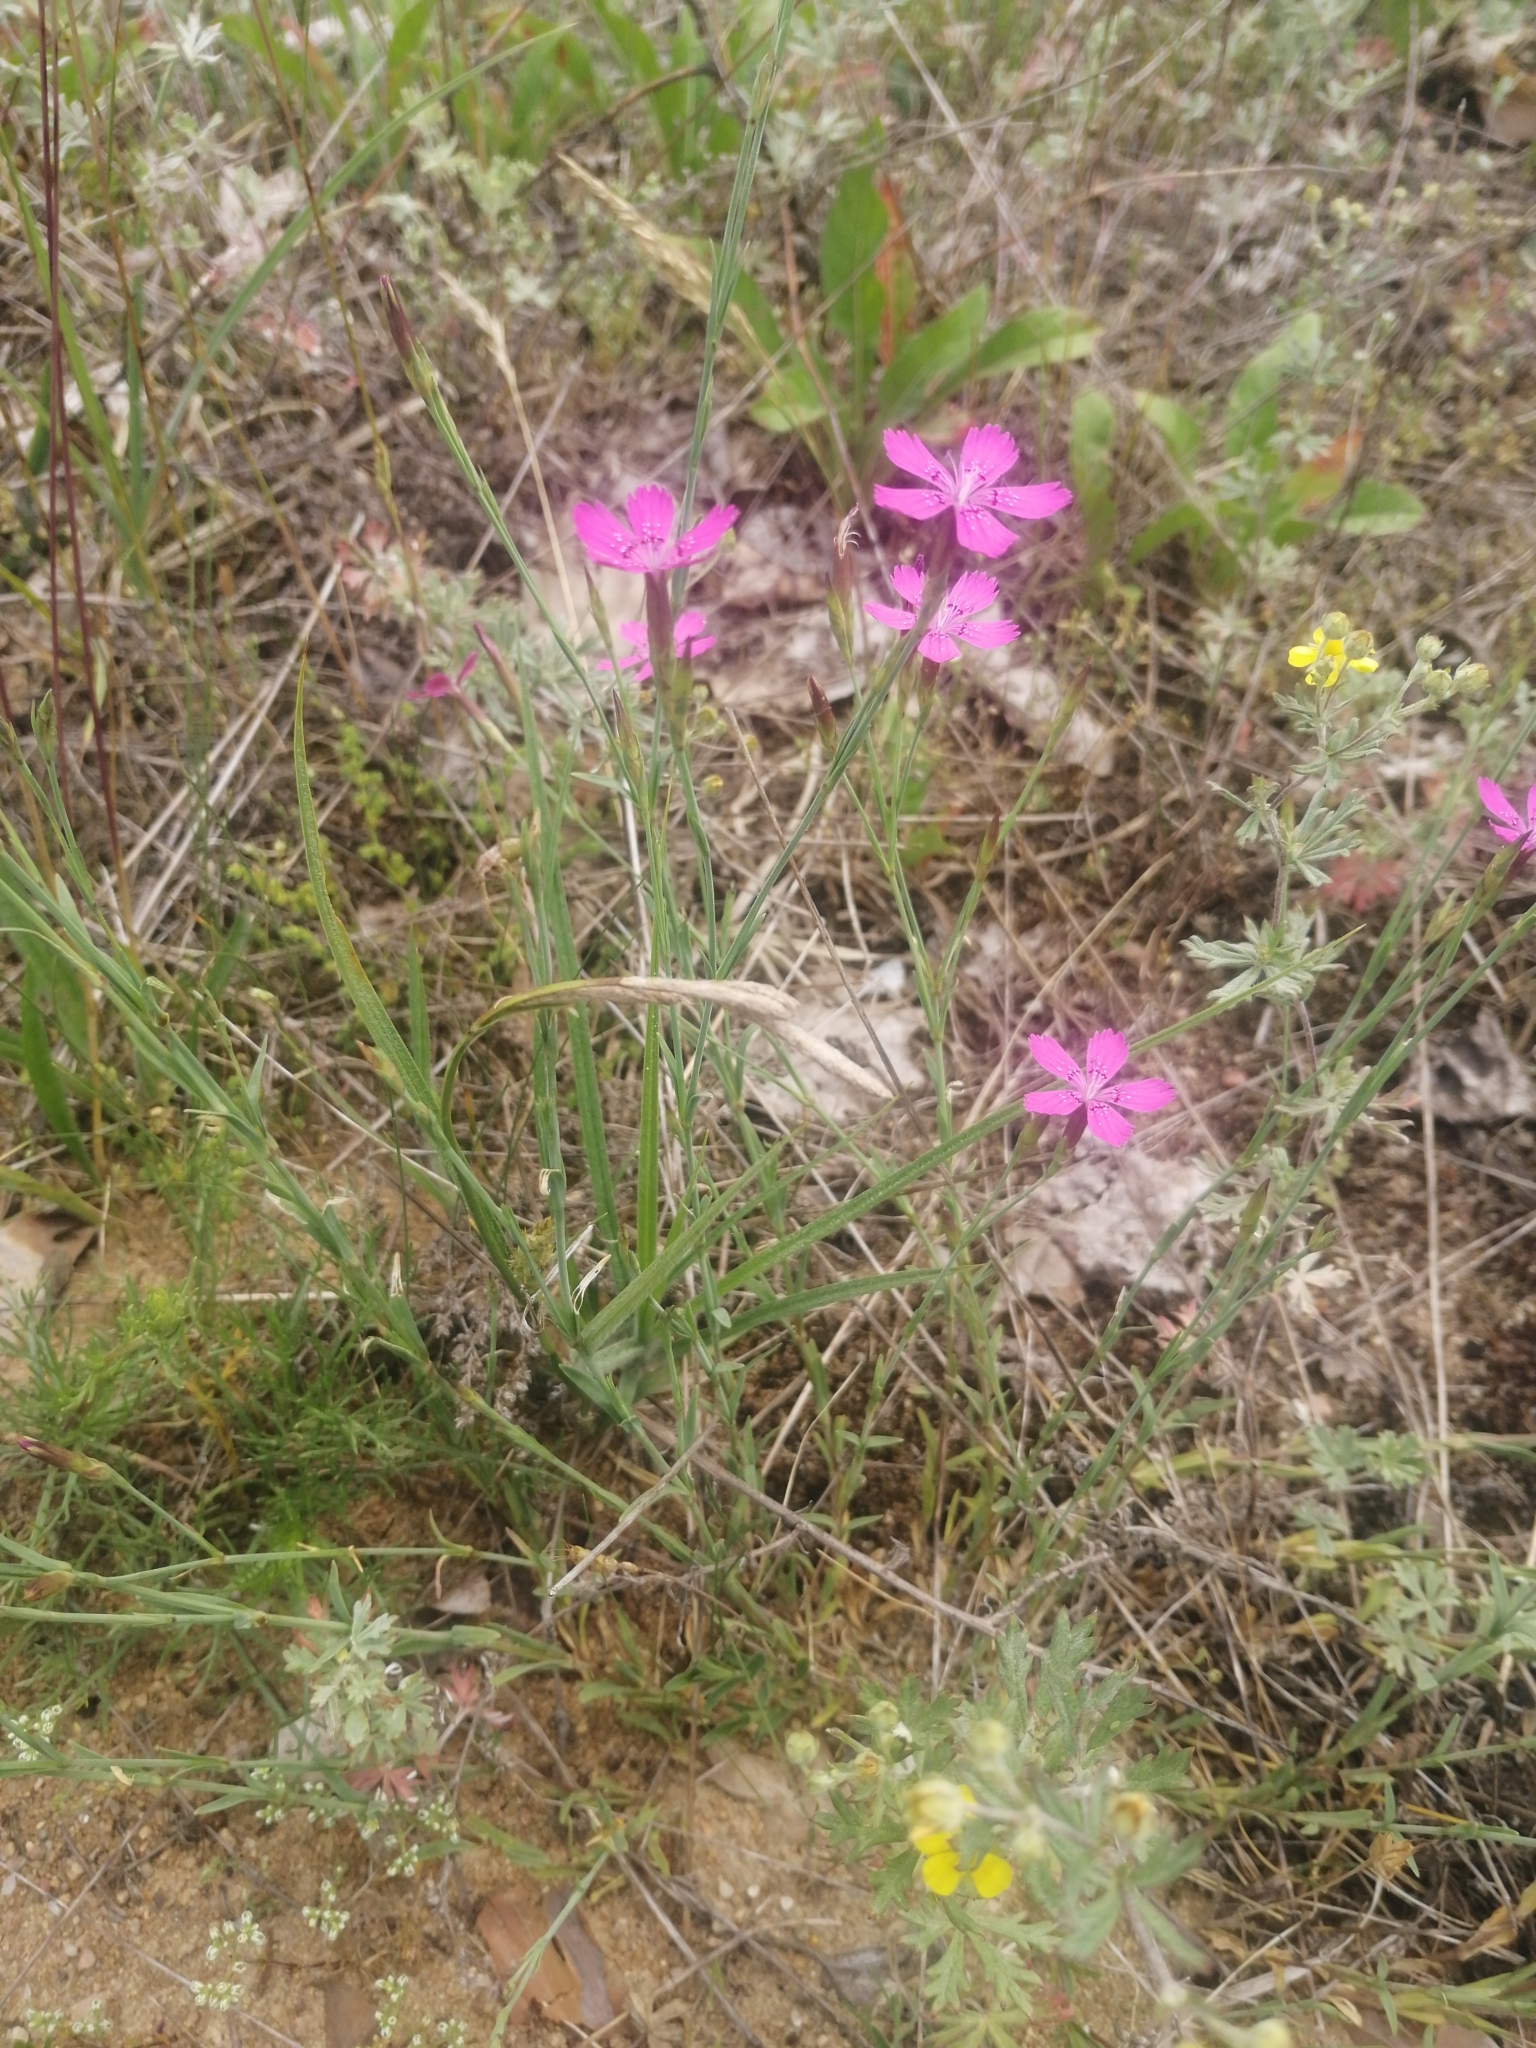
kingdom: Plantae
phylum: Tracheophyta
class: Magnoliopsida
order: Caryophyllales
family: Caryophyllaceae
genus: Dianthus
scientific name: Dianthus deltoides
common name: Maiden pink
